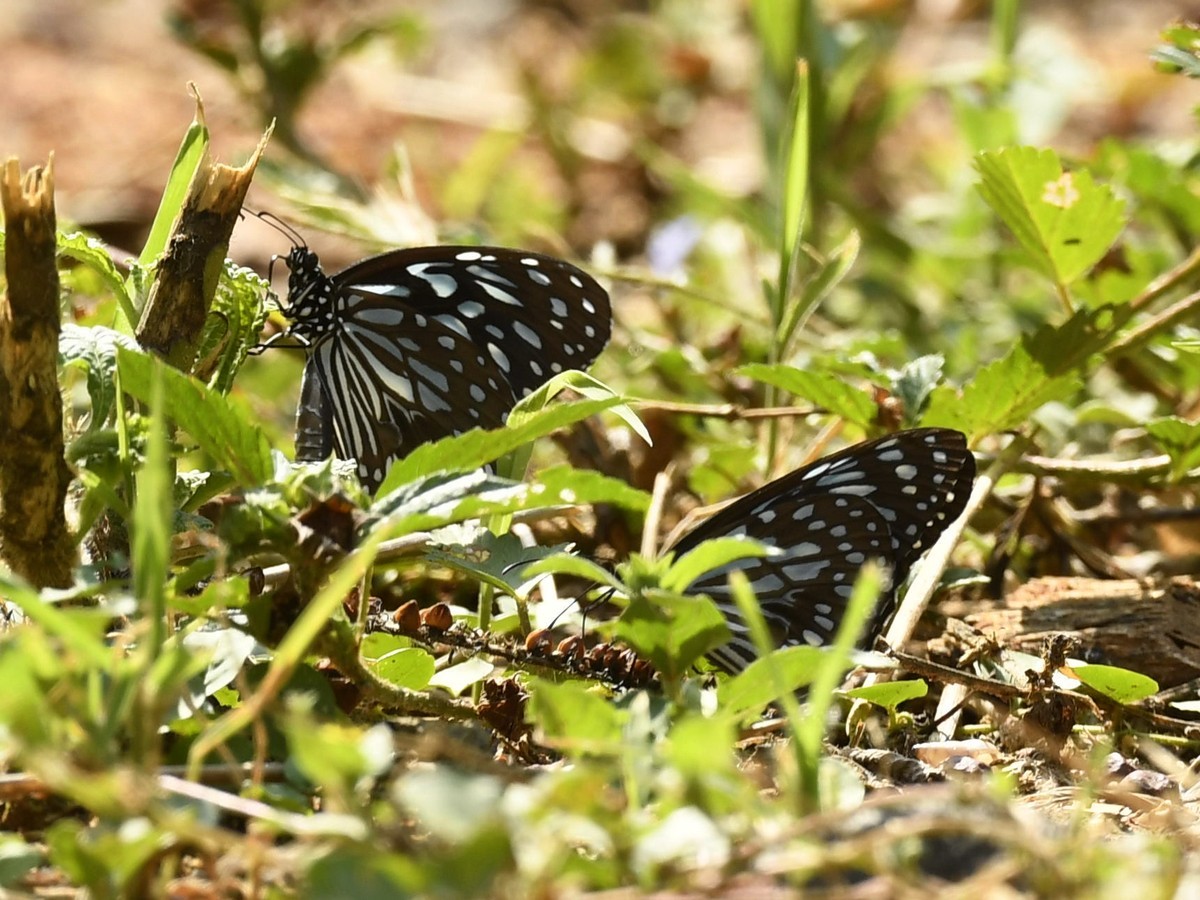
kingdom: Animalia
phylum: Arthropoda
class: Insecta
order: Lepidoptera
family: Nymphalidae
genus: Tirumala
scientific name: Tirumala septentrionis
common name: Dark blue tiger butterfly
